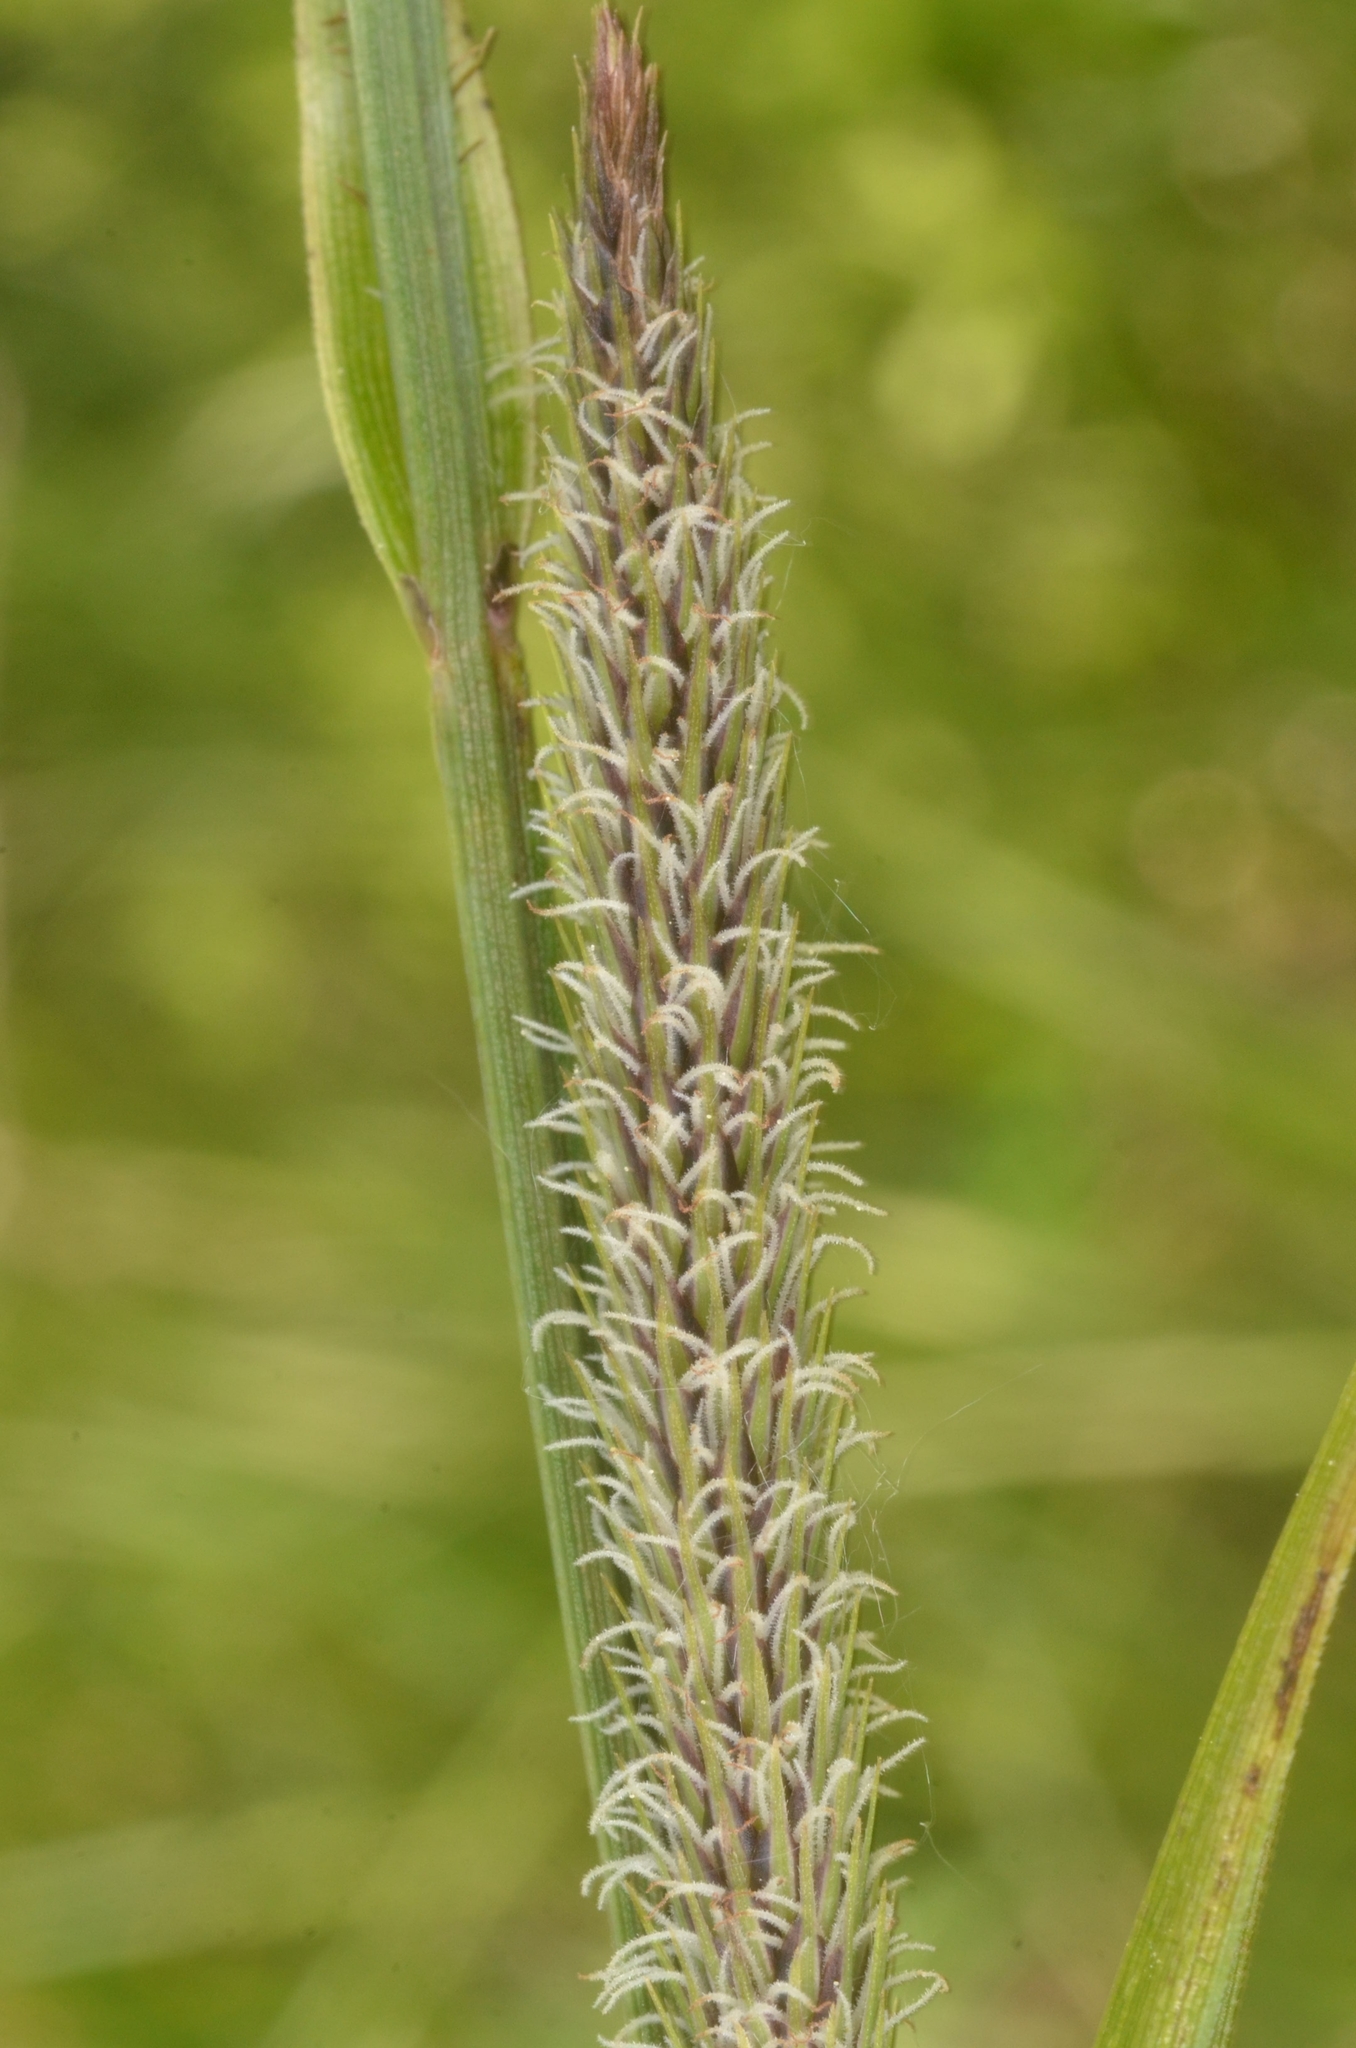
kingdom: Plantae
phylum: Tracheophyta
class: Liliopsida
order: Poales
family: Cyperaceae
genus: Carex
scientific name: Carex acutiformis
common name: Lesser pond-sedge
